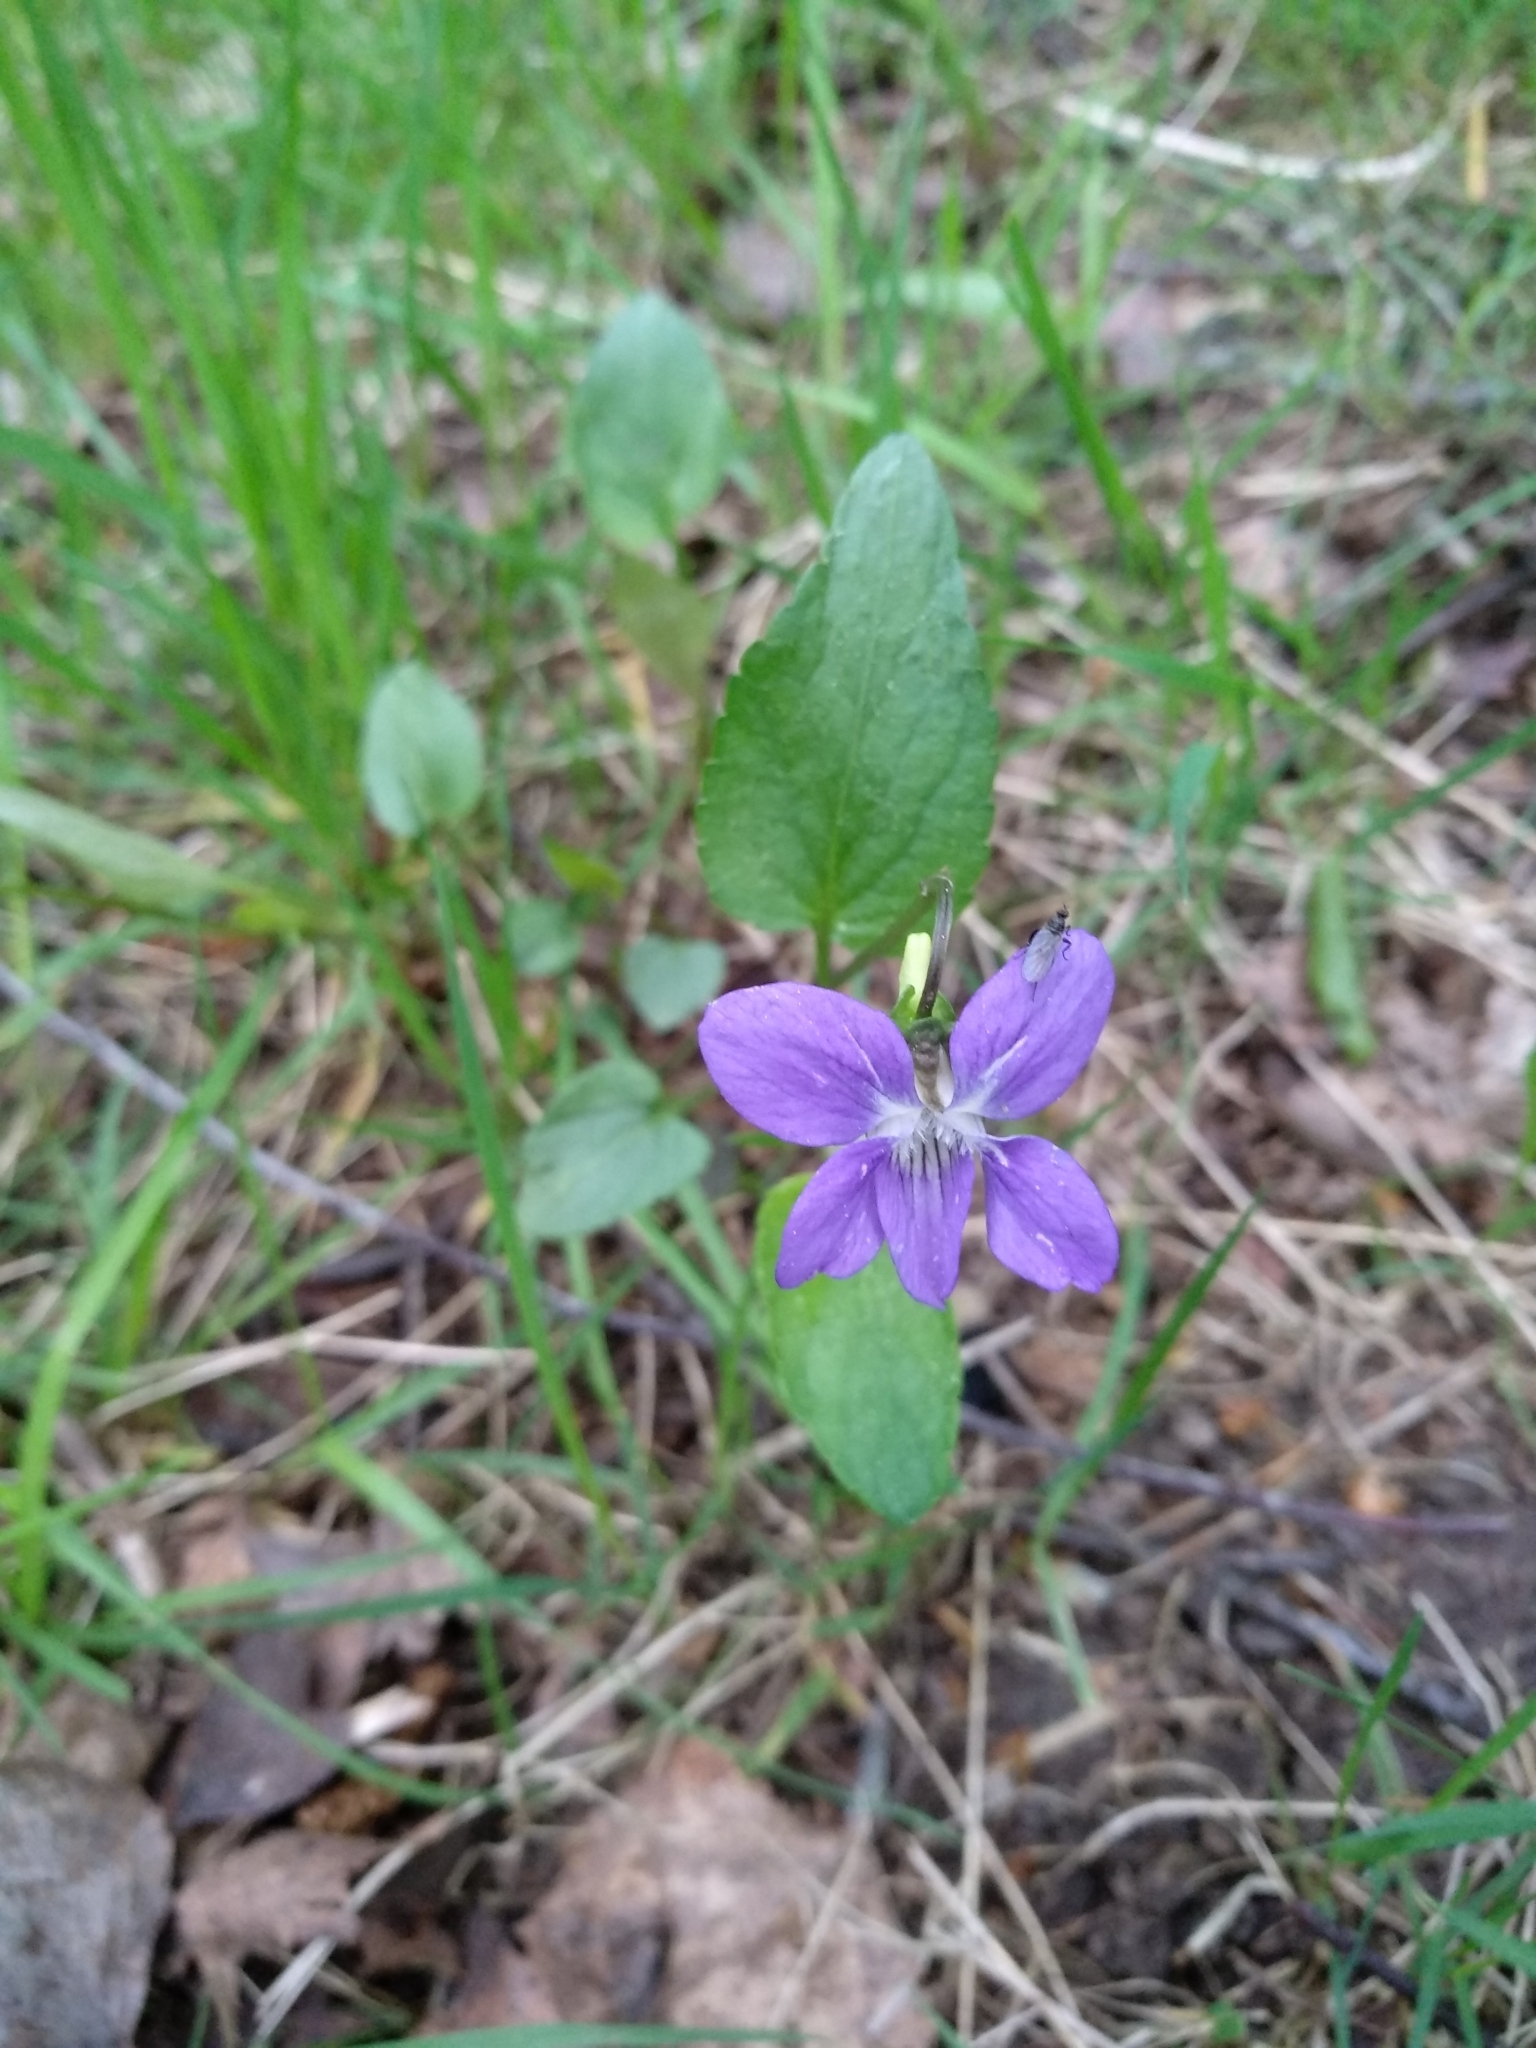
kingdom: Plantae
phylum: Tracheophyta
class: Magnoliopsida
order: Malpighiales
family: Violaceae
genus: Viola
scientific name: Viola canina
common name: Heath dog-violet
